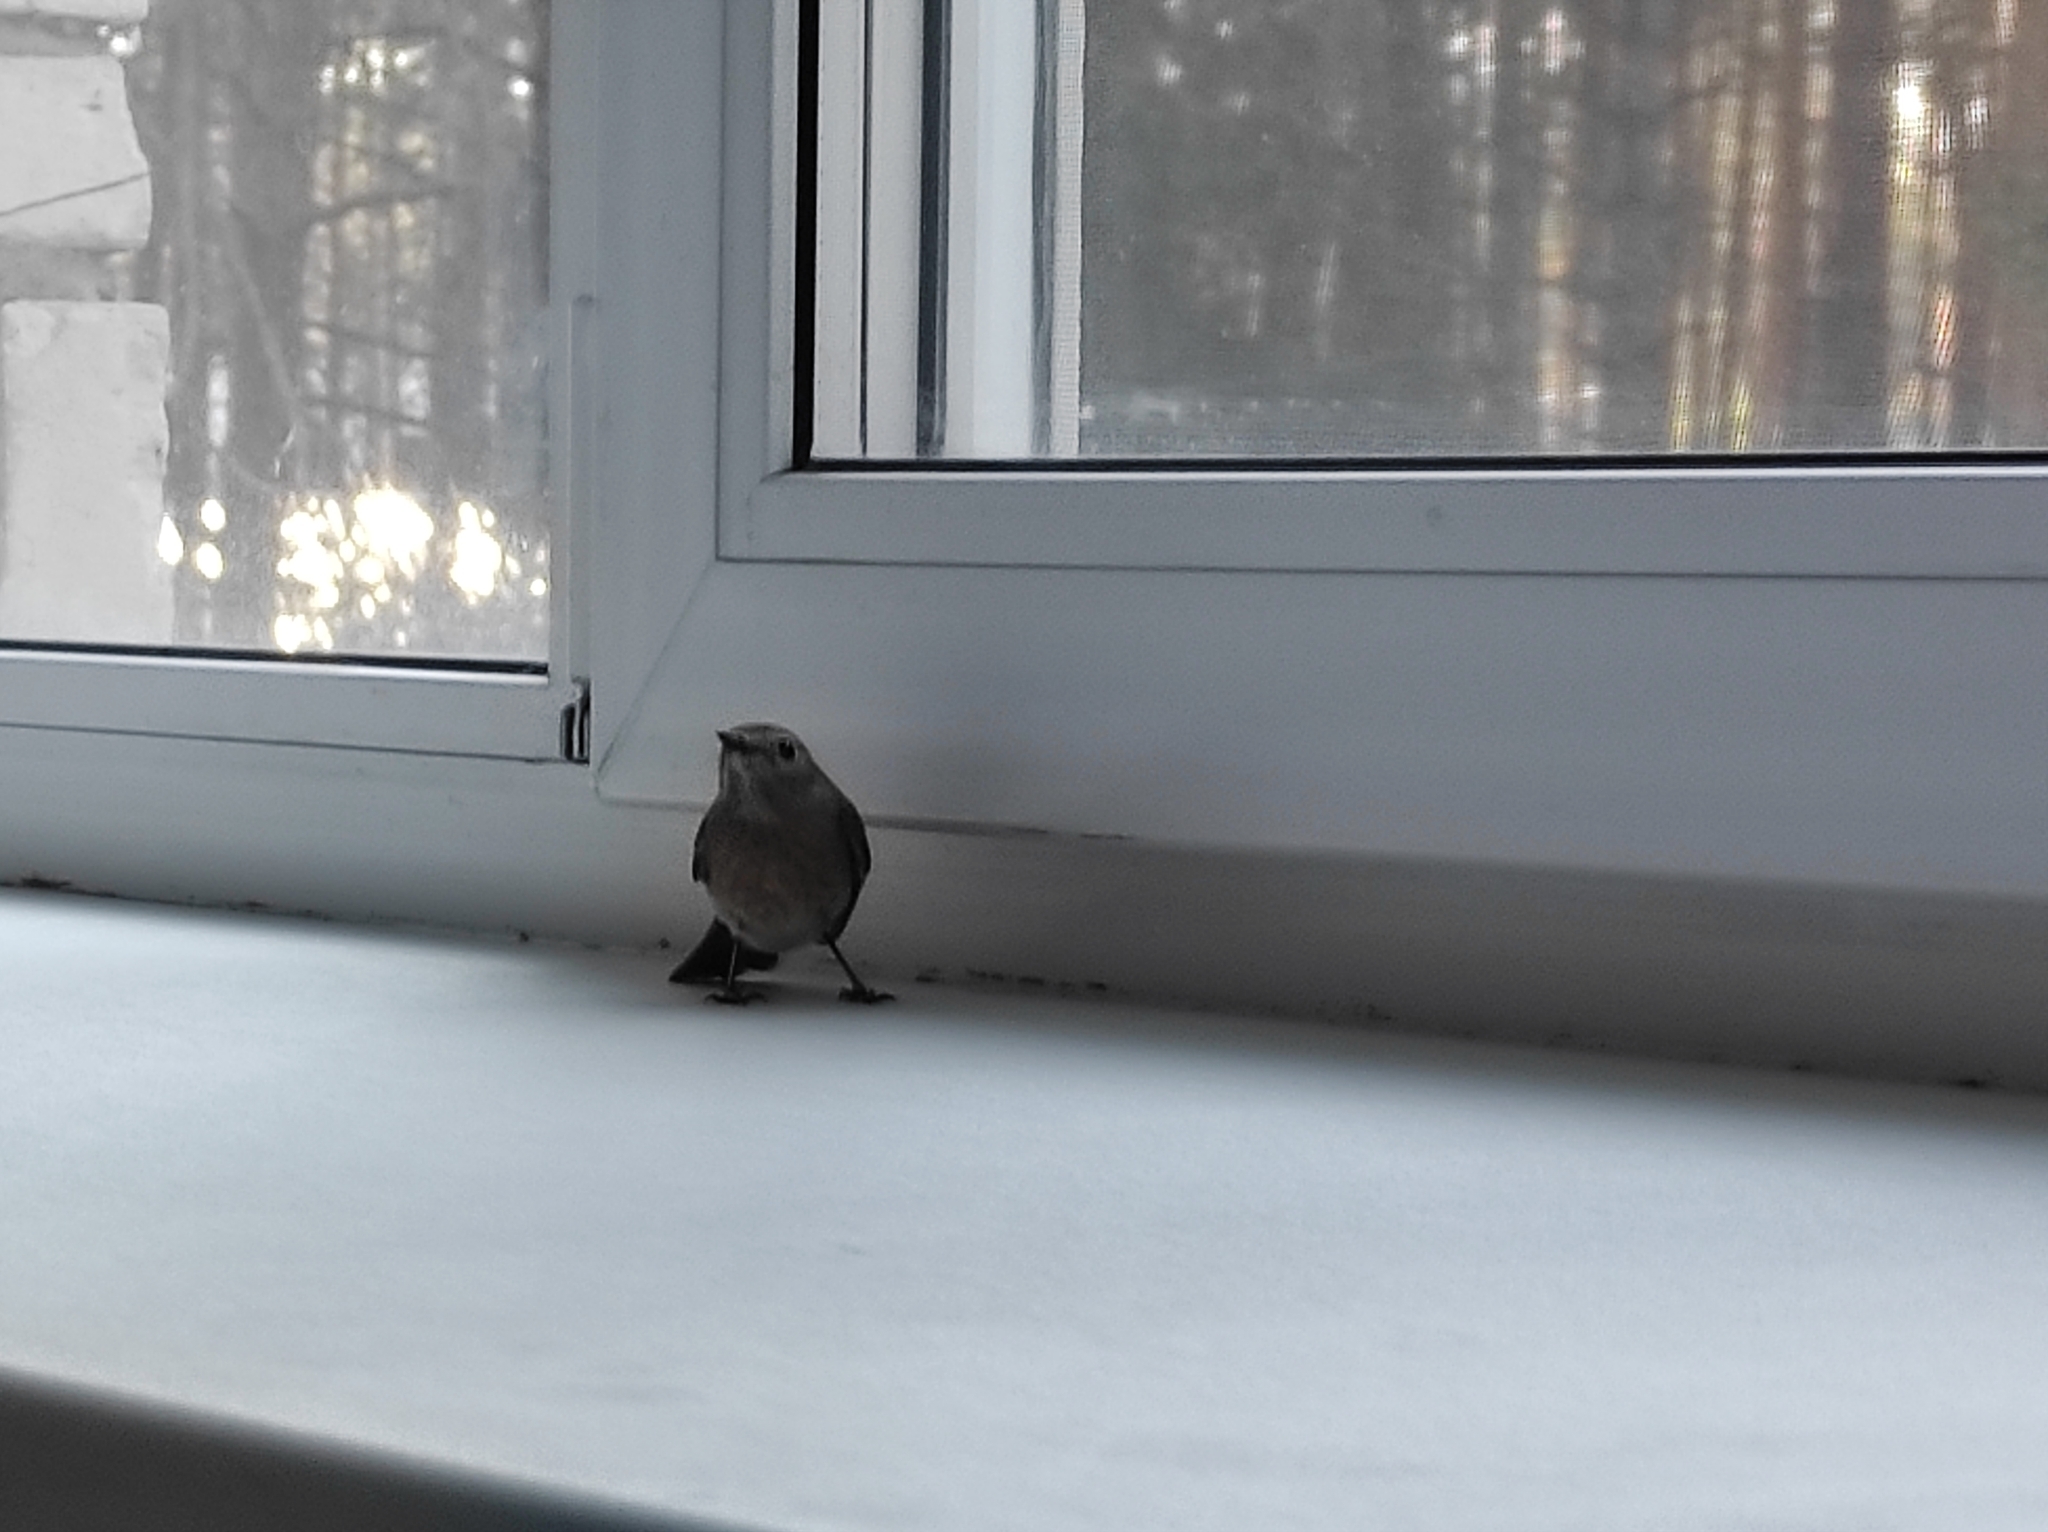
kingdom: Animalia
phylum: Chordata
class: Aves
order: Passeriformes
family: Muscicapidae
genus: Phoenicurus
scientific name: Phoenicurus phoenicurus
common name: Common redstart
